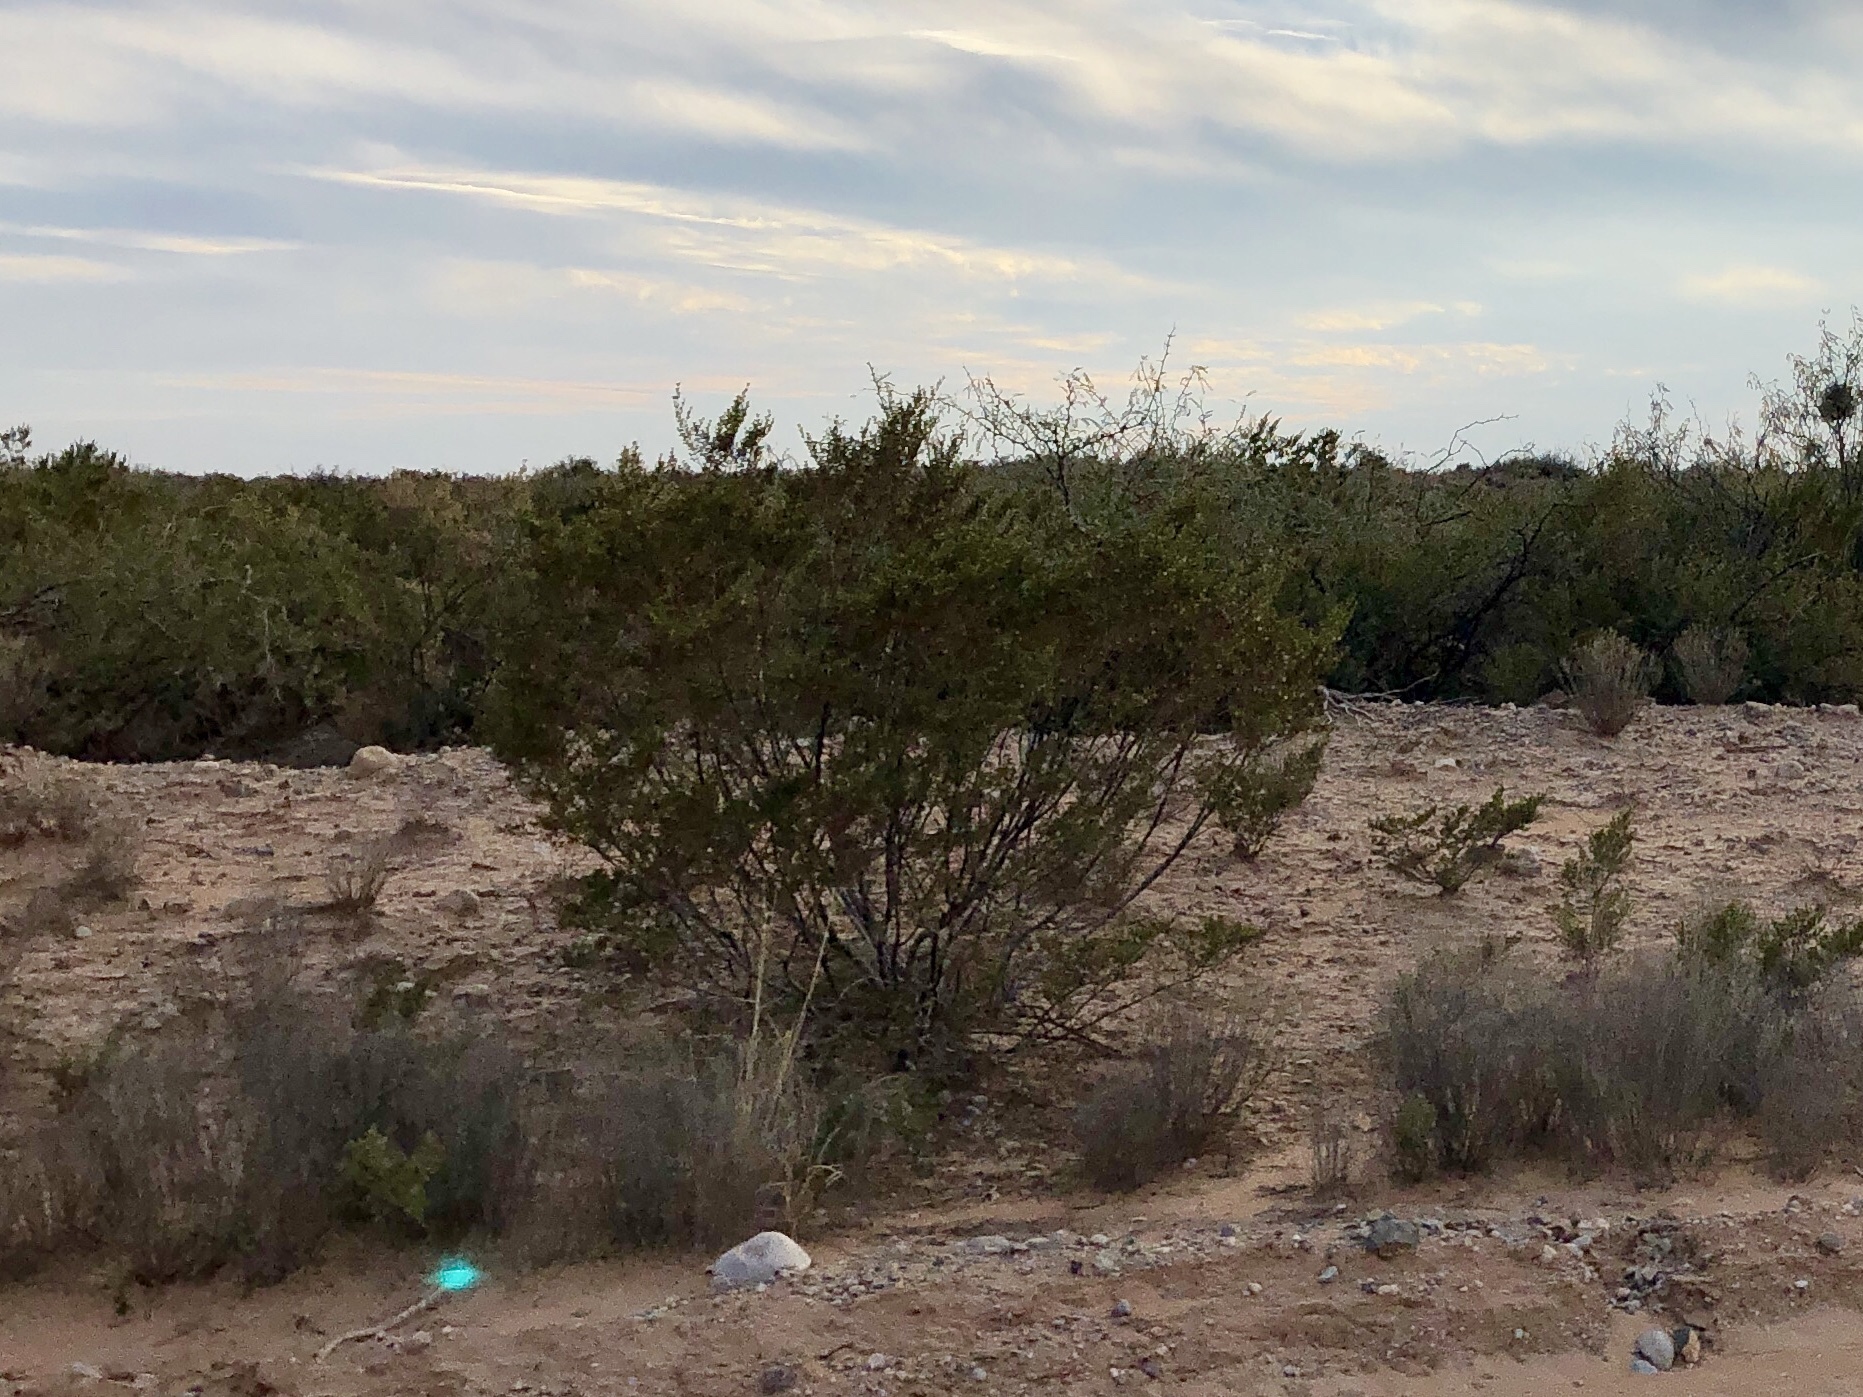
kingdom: Plantae
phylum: Tracheophyta
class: Magnoliopsida
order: Zygophyllales
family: Zygophyllaceae
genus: Larrea
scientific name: Larrea tridentata
